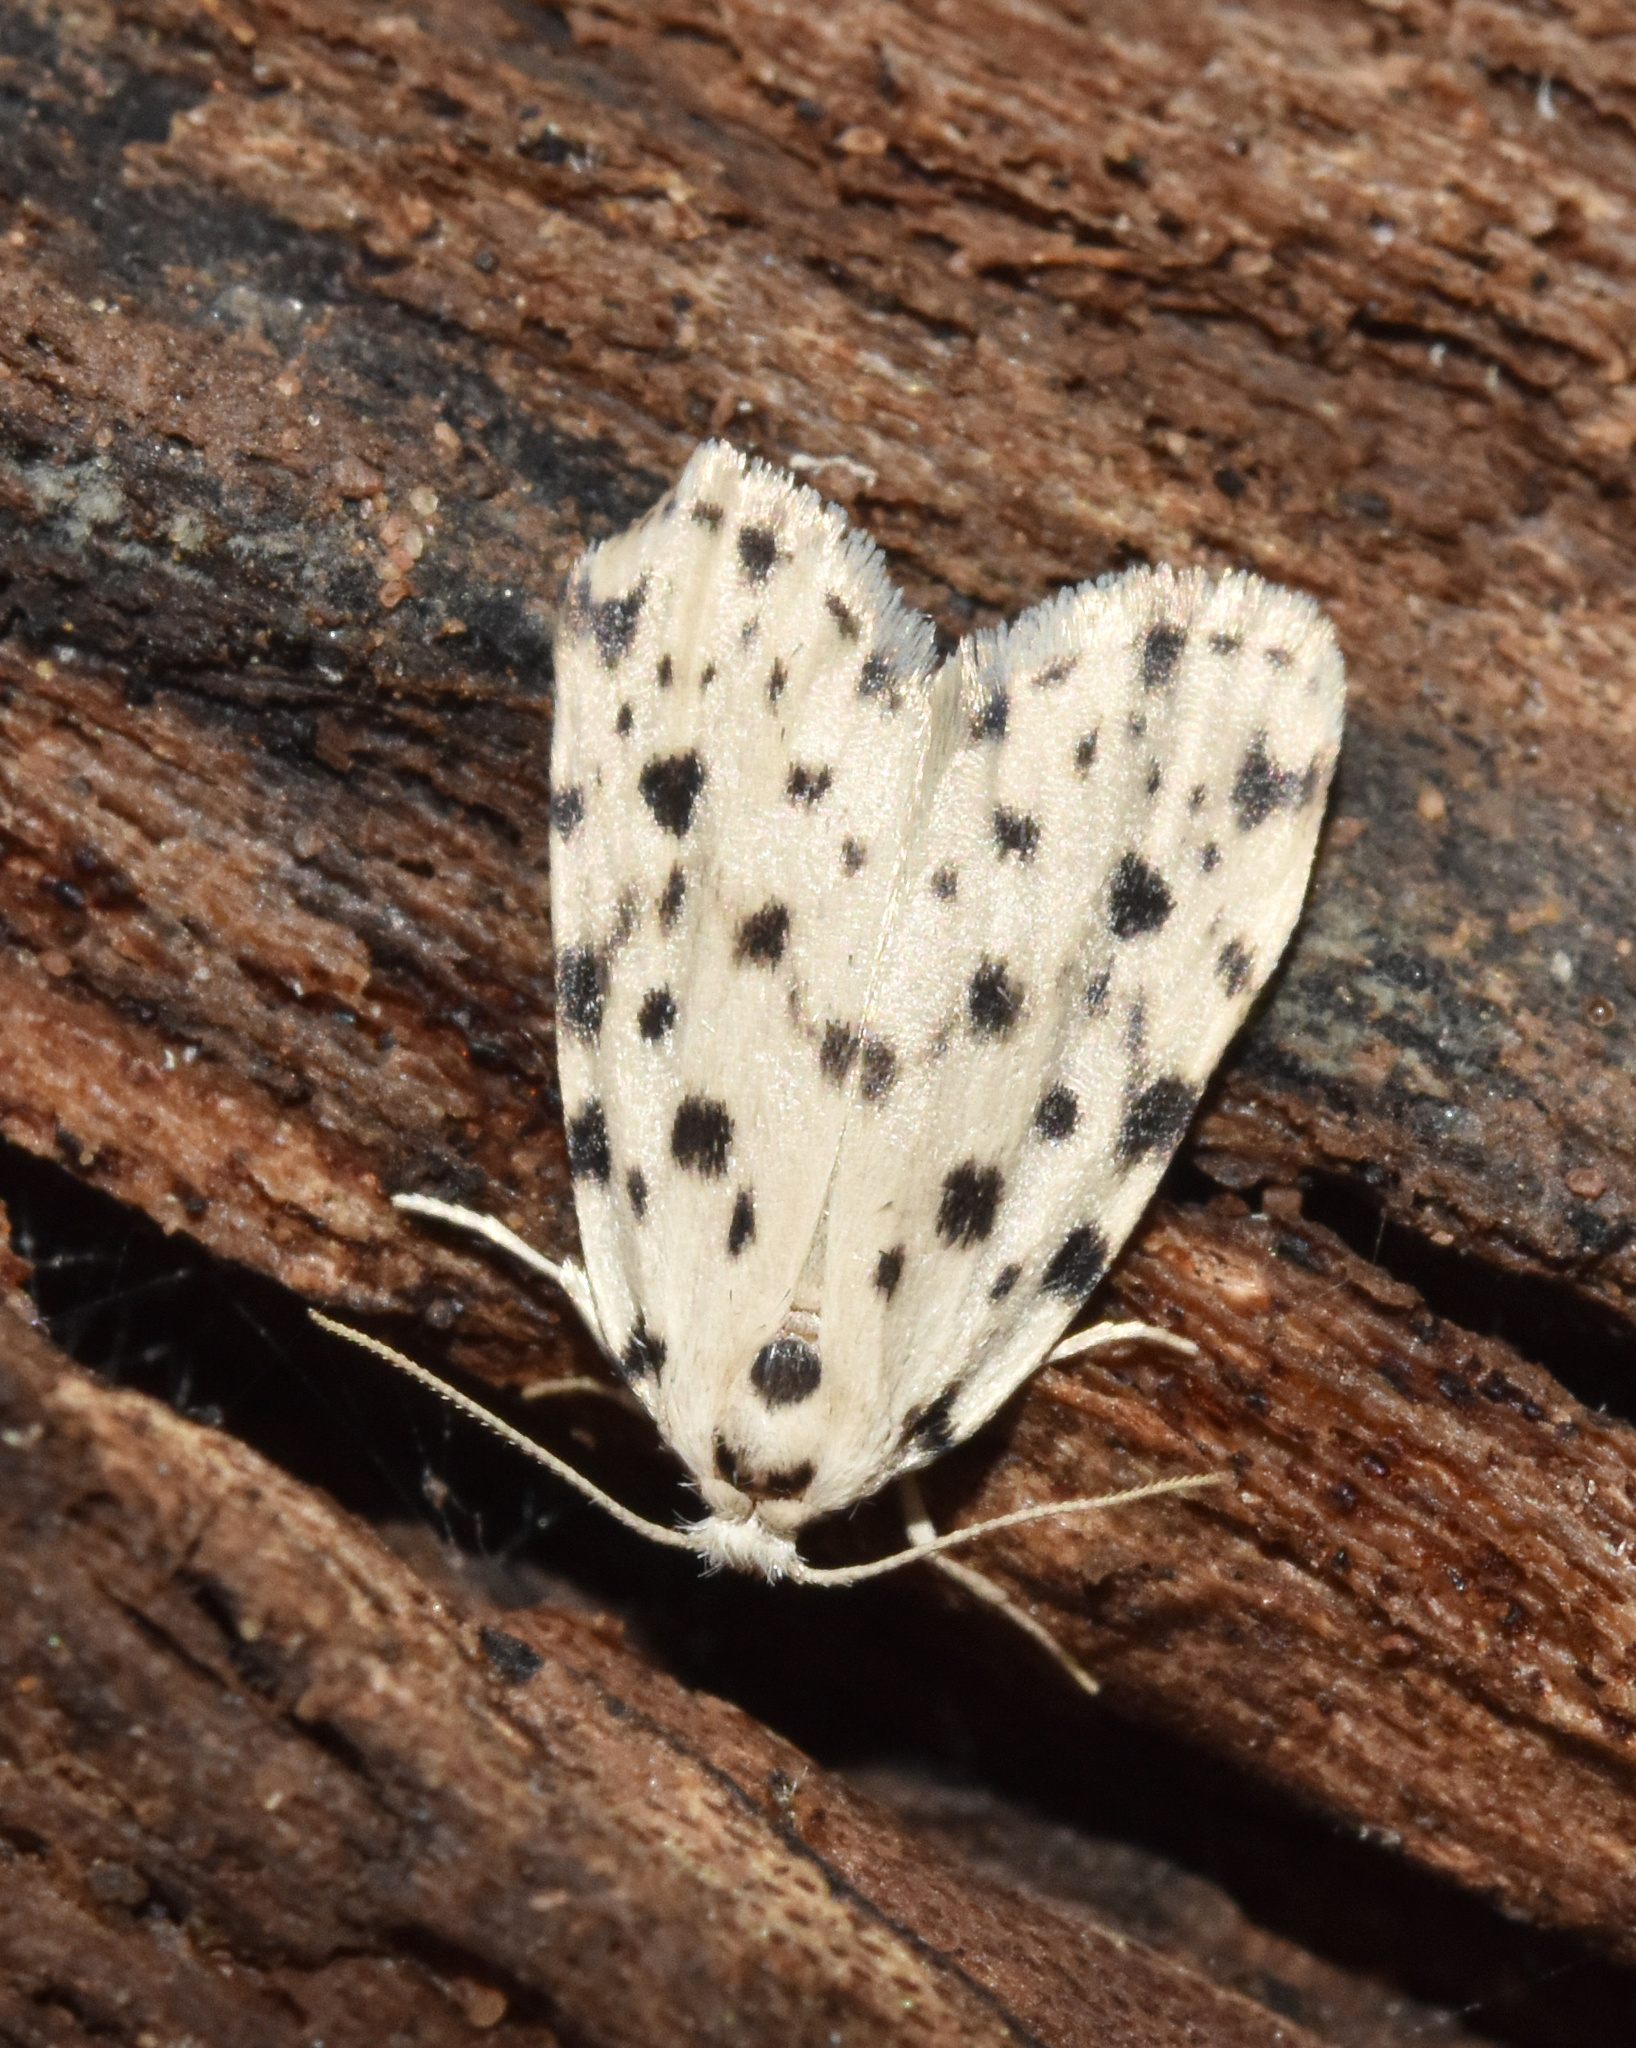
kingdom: Animalia
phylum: Arthropoda
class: Insecta
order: Lepidoptera
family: Erebidae
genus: Siccia
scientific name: Siccia caffra
